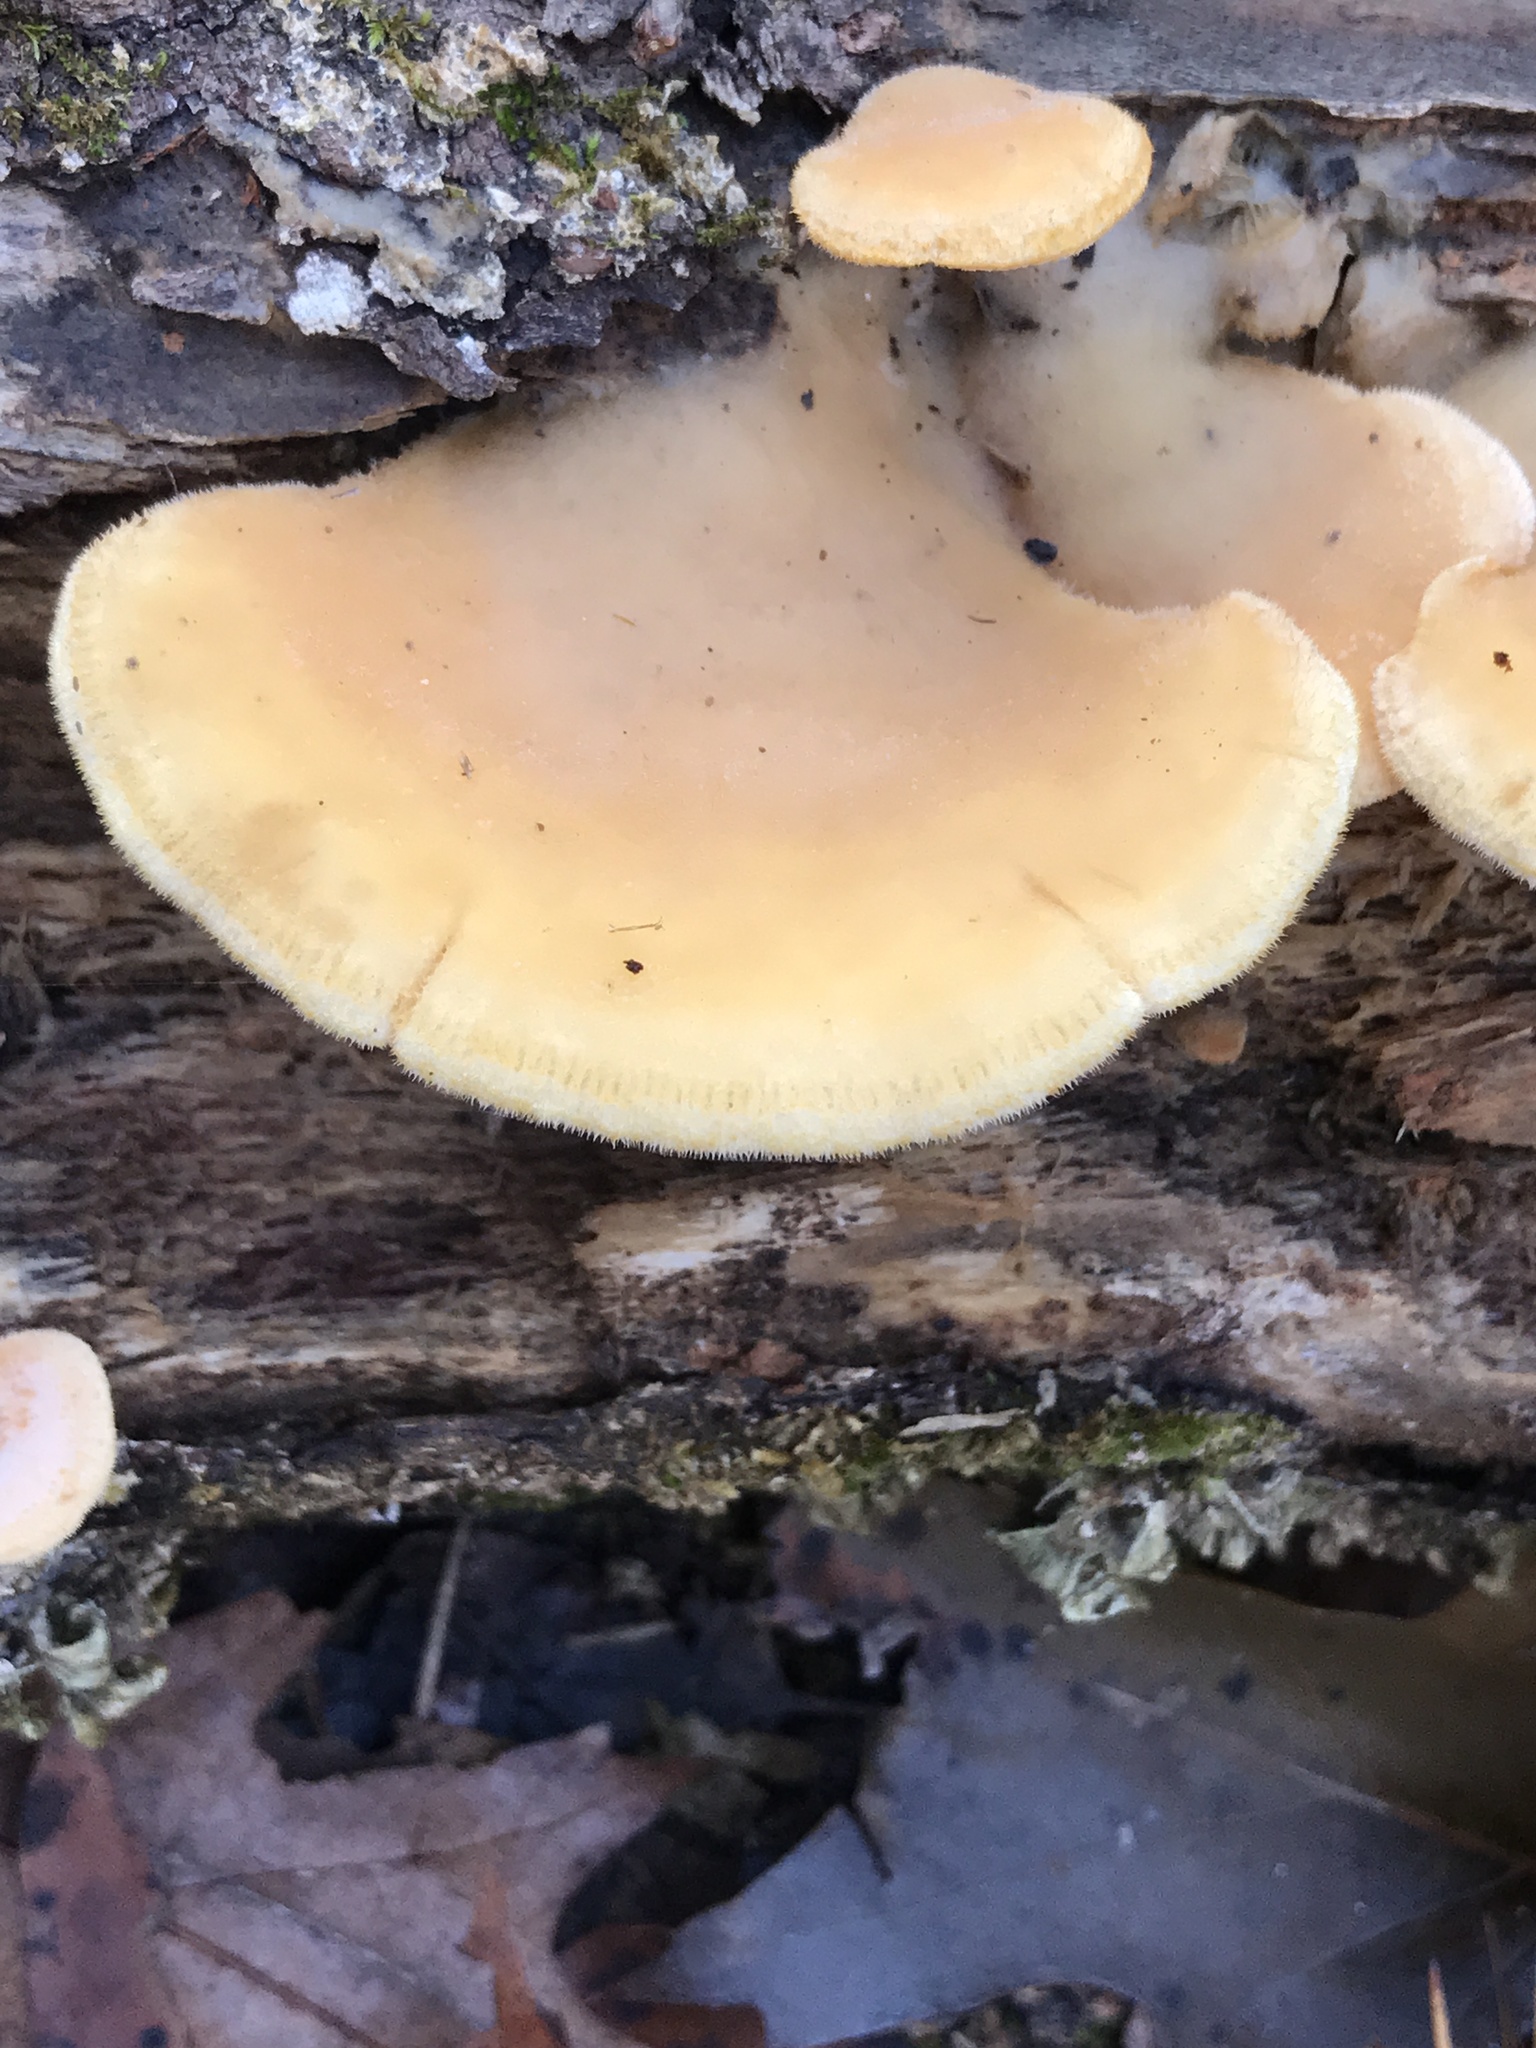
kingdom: Fungi
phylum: Basidiomycota
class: Agaricomycetes
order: Agaricales
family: Phyllotopsidaceae
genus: Phyllotopsis
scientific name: Phyllotopsis nidulans
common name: Orange mock oyster
